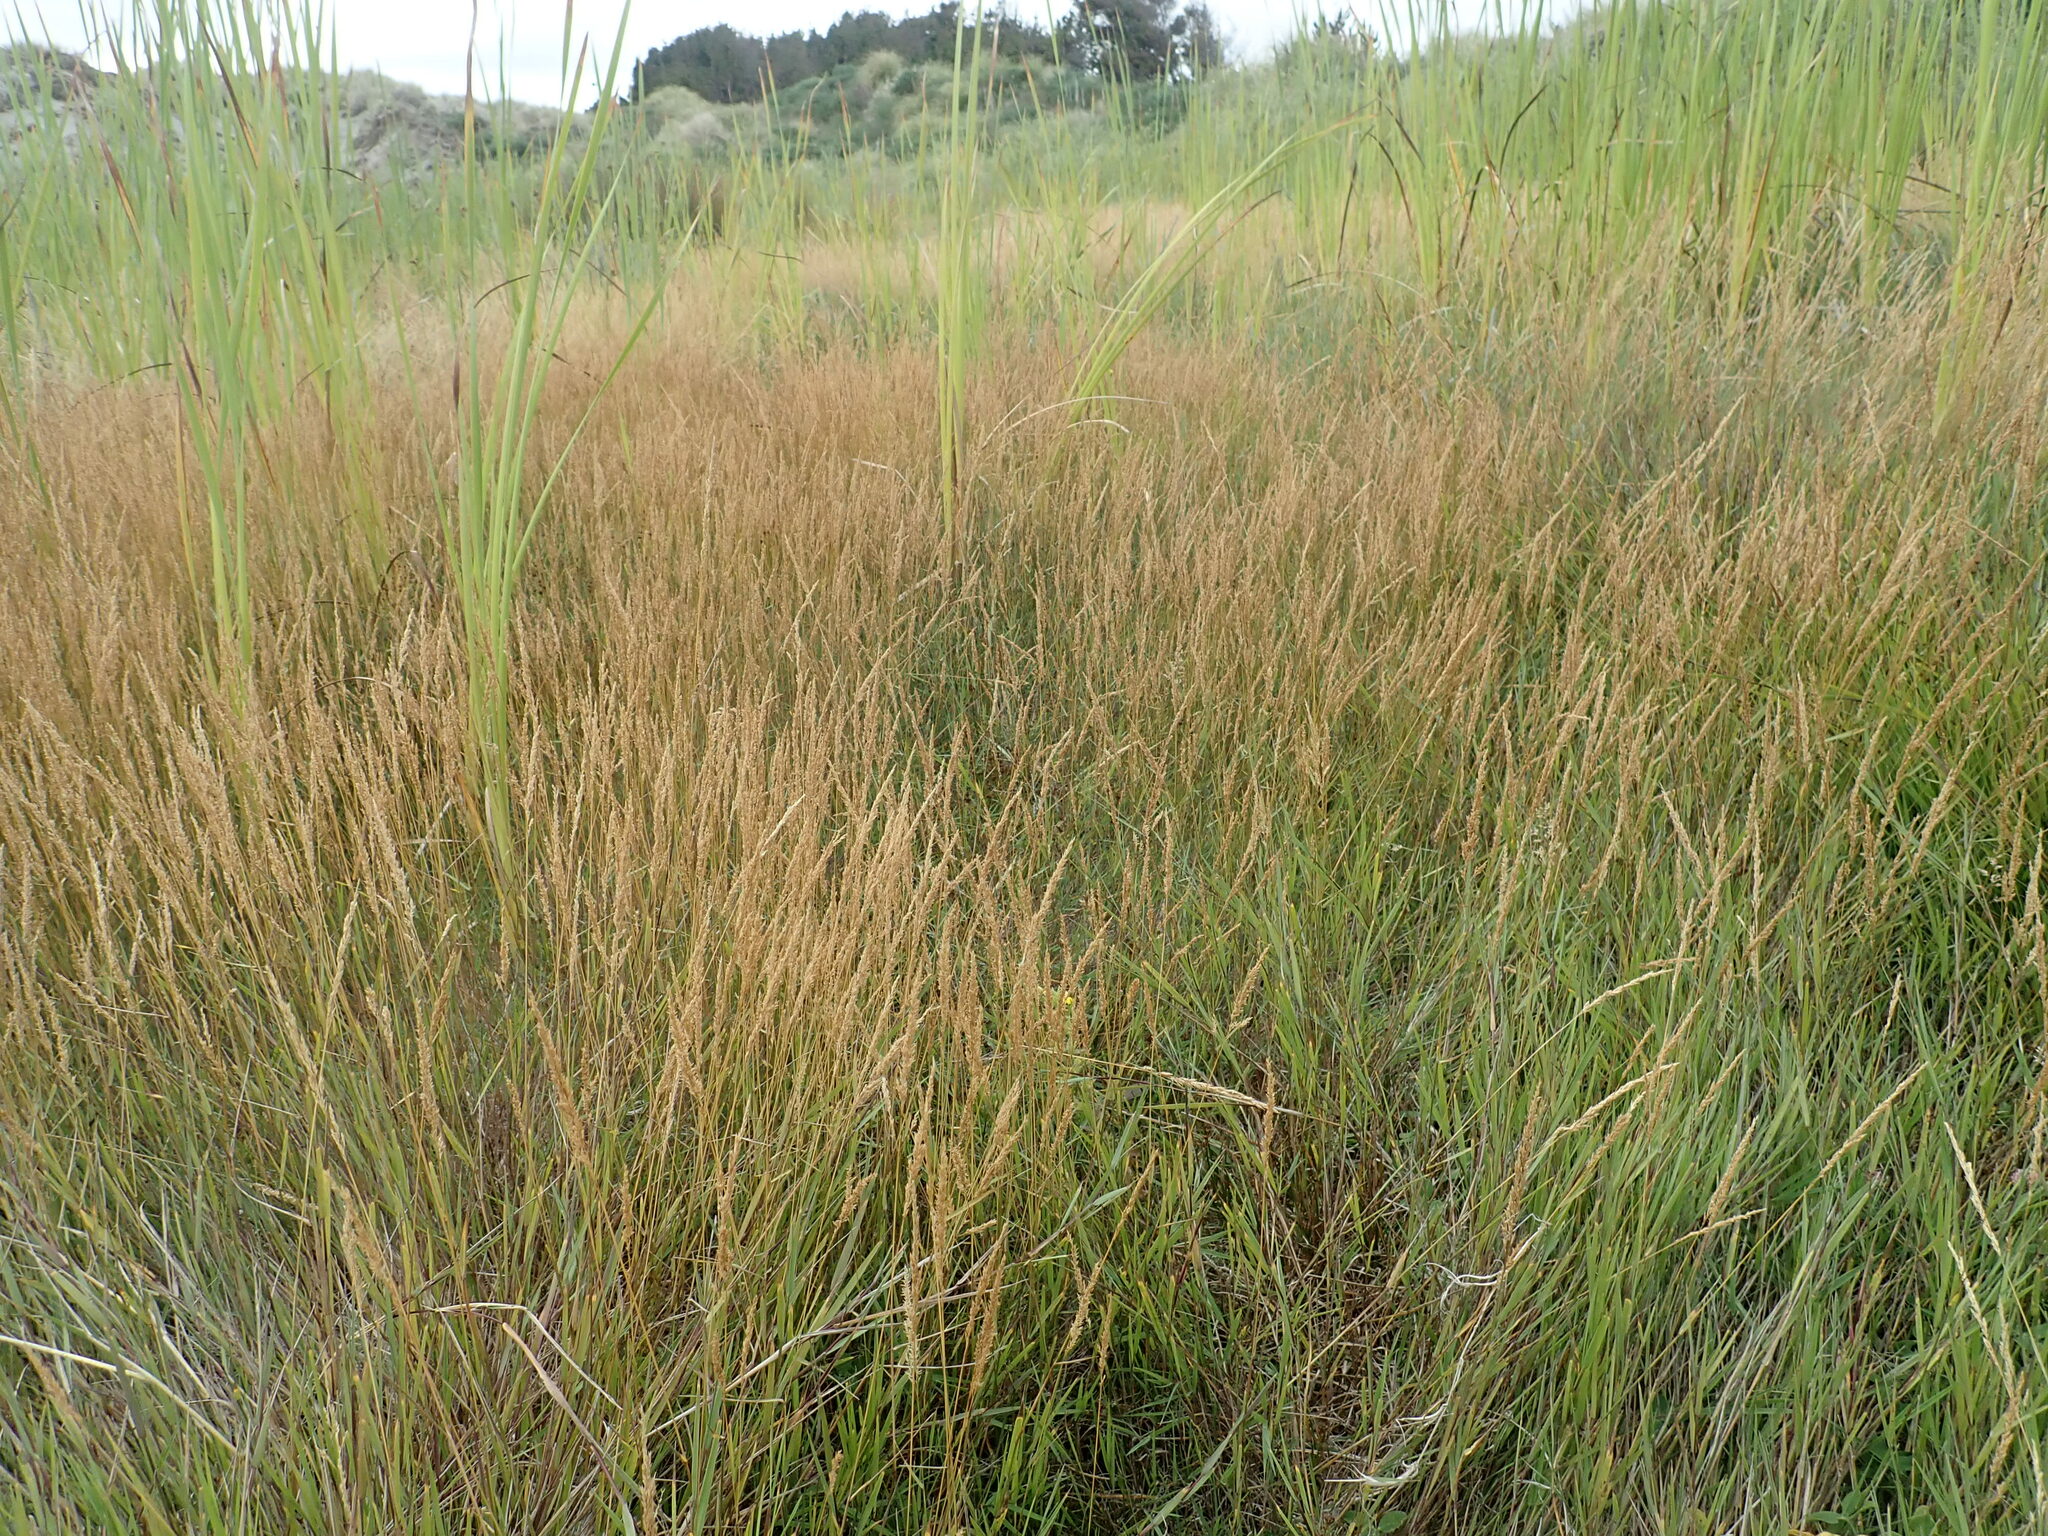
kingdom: Plantae
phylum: Tracheophyta
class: Liliopsida
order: Poales
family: Poaceae
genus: Agrostis
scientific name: Agrostis stolonifera
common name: Creeping bentgrass
